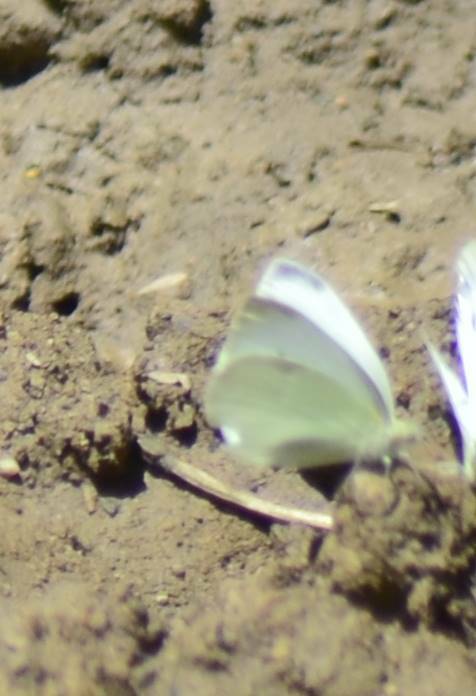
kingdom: Animalia
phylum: Arthropoda
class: Insecta
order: Lepidoptera
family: Pieridae
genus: Pieris
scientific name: Pieris rapae
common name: Small white
